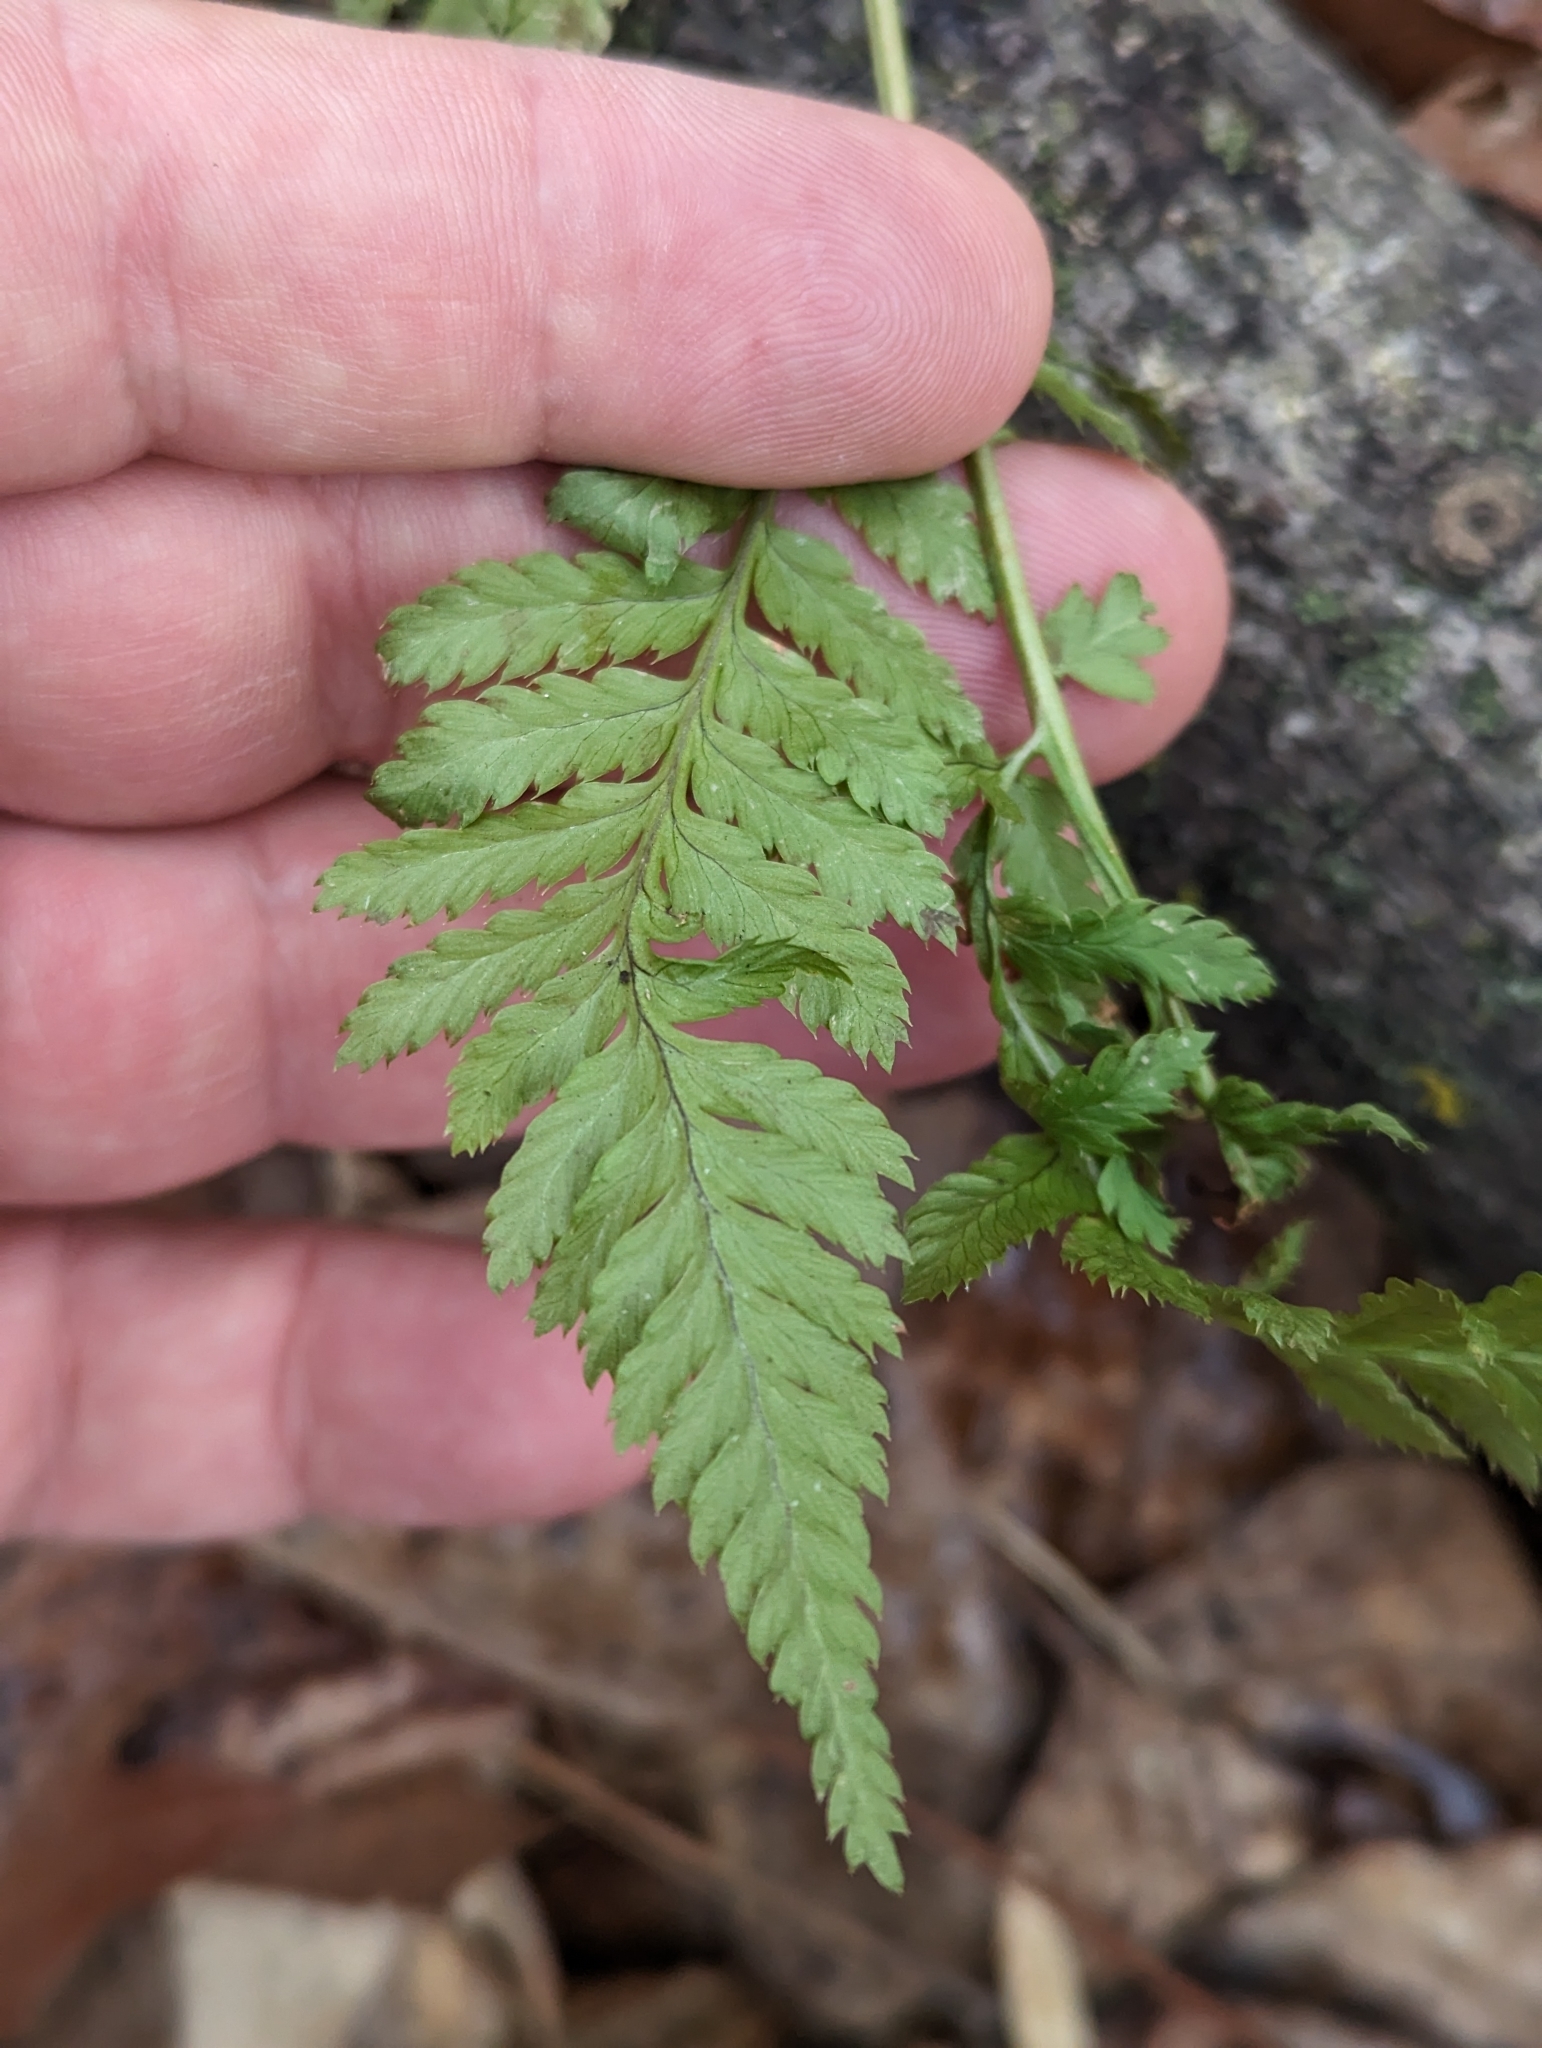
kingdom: Plantae
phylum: Tracheophyta
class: Polypodiopsida
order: Polypodiales
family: Dryopteridaceae
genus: Dryopteris
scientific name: Dryopteris carthusiana
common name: Narrow buckler-fern
